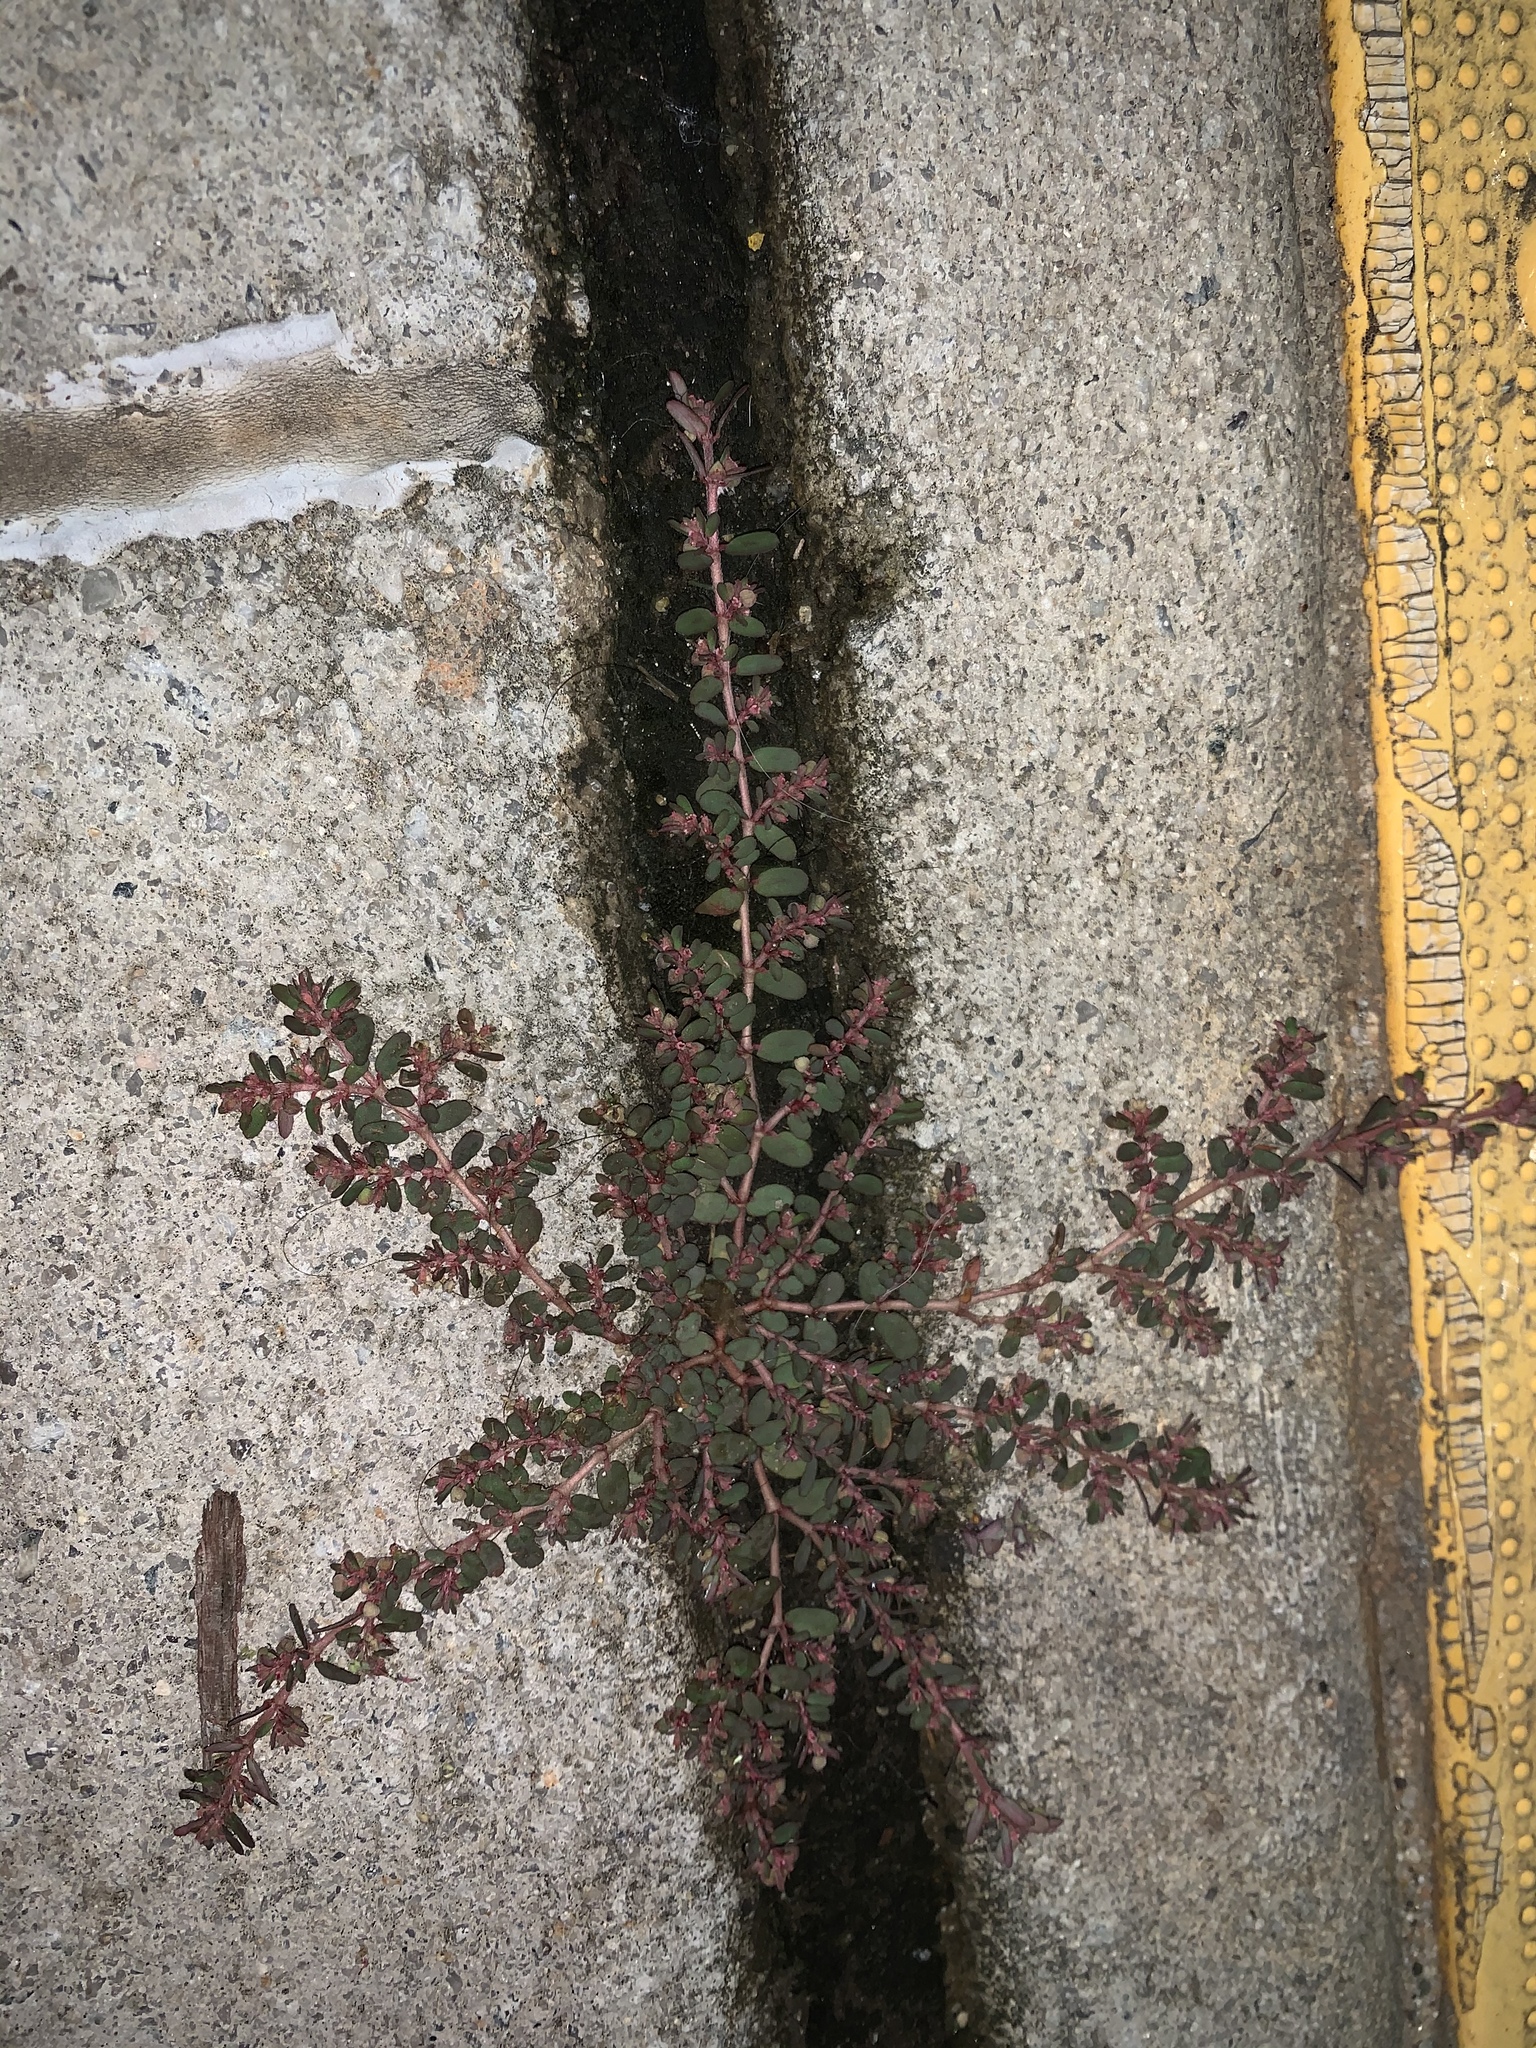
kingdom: Plantae
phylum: Tracheophyta
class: Magnoliopsida
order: Malpighiales
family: Euphorbiaceae
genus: Euphorbia
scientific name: Euphorbia maculata
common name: Spotted spurge
